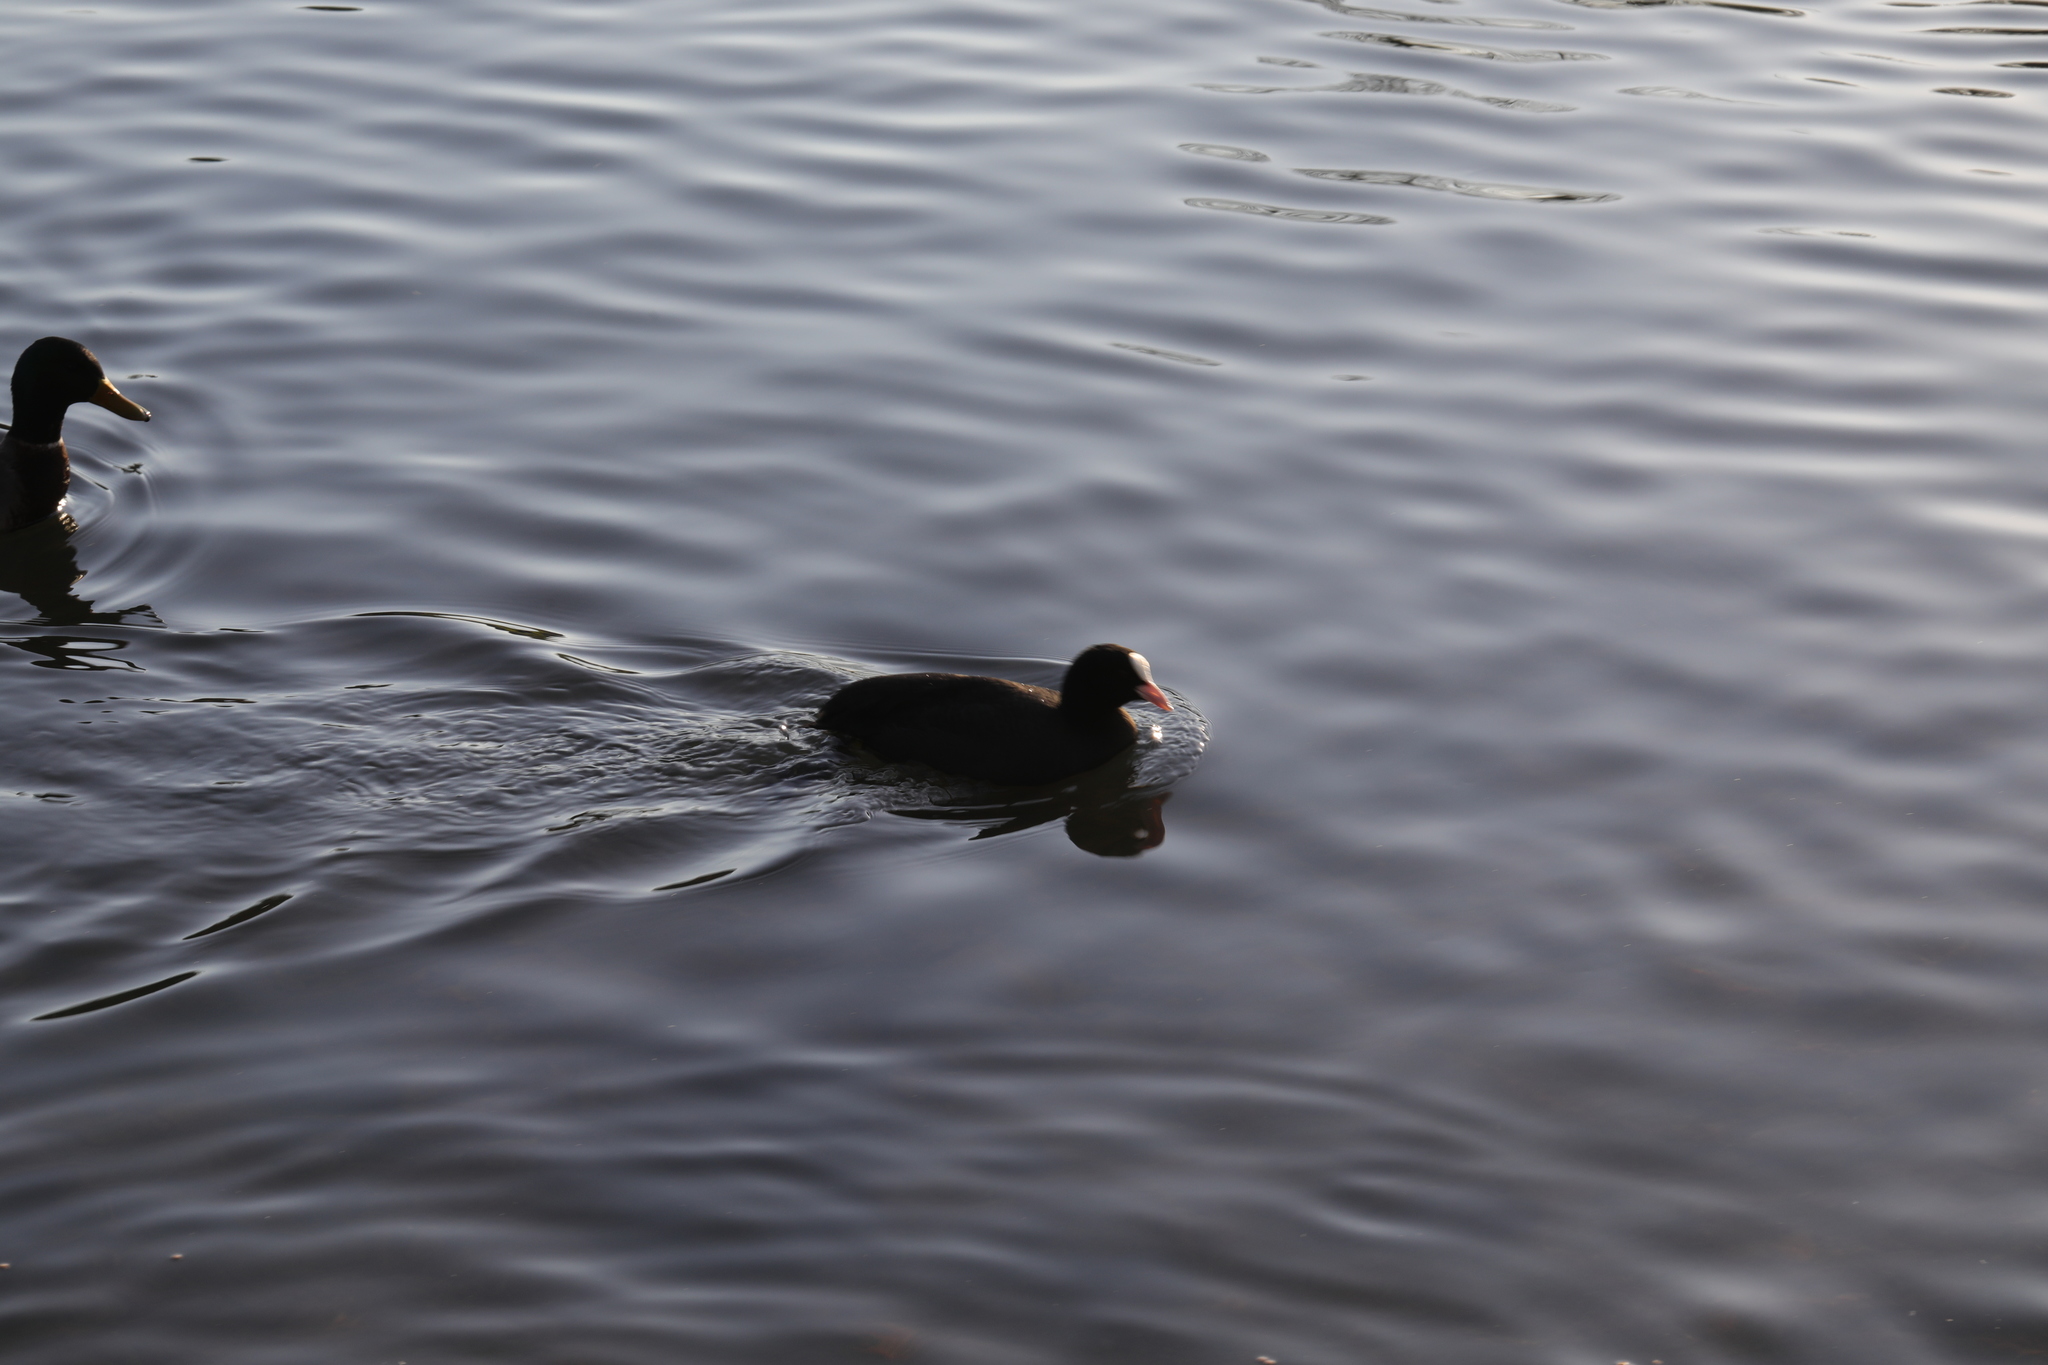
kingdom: Animalia
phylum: Chordata
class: Aves
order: Gruiformes
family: Rallidae
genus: Fulica
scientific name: Fulica atra
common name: Eurasian coot
